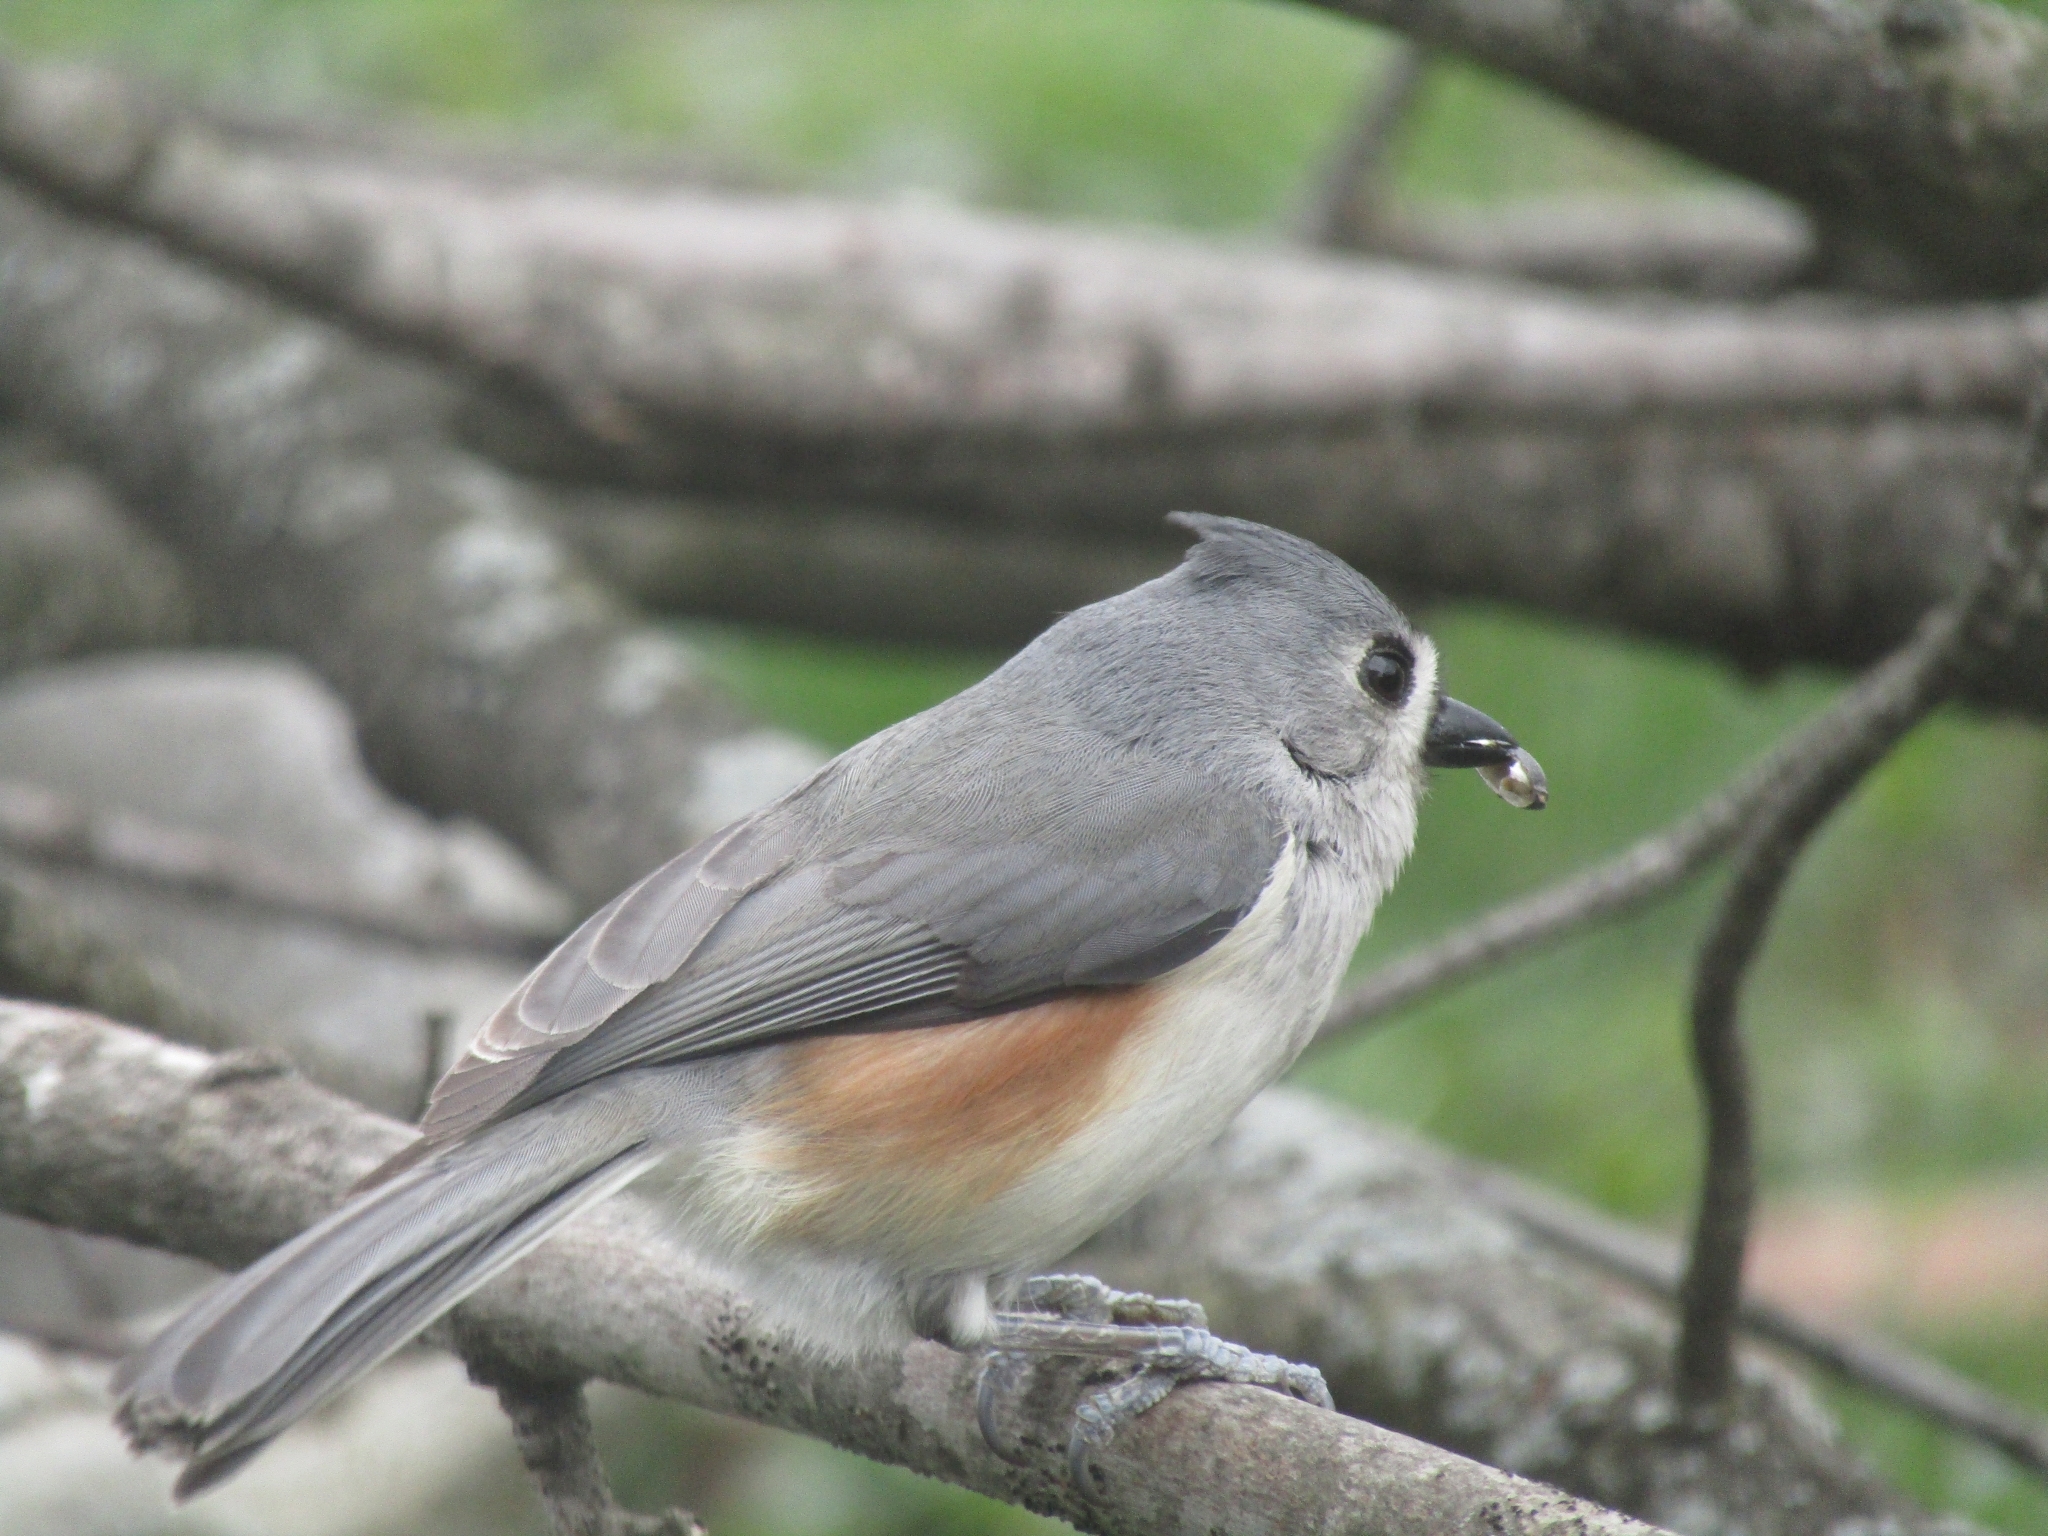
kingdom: Animalia
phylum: Chordata
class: Aves
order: Passeriformes
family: Paridae
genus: Baeolophus
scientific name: Baeolophus bicolor
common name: Tufted titmouse
